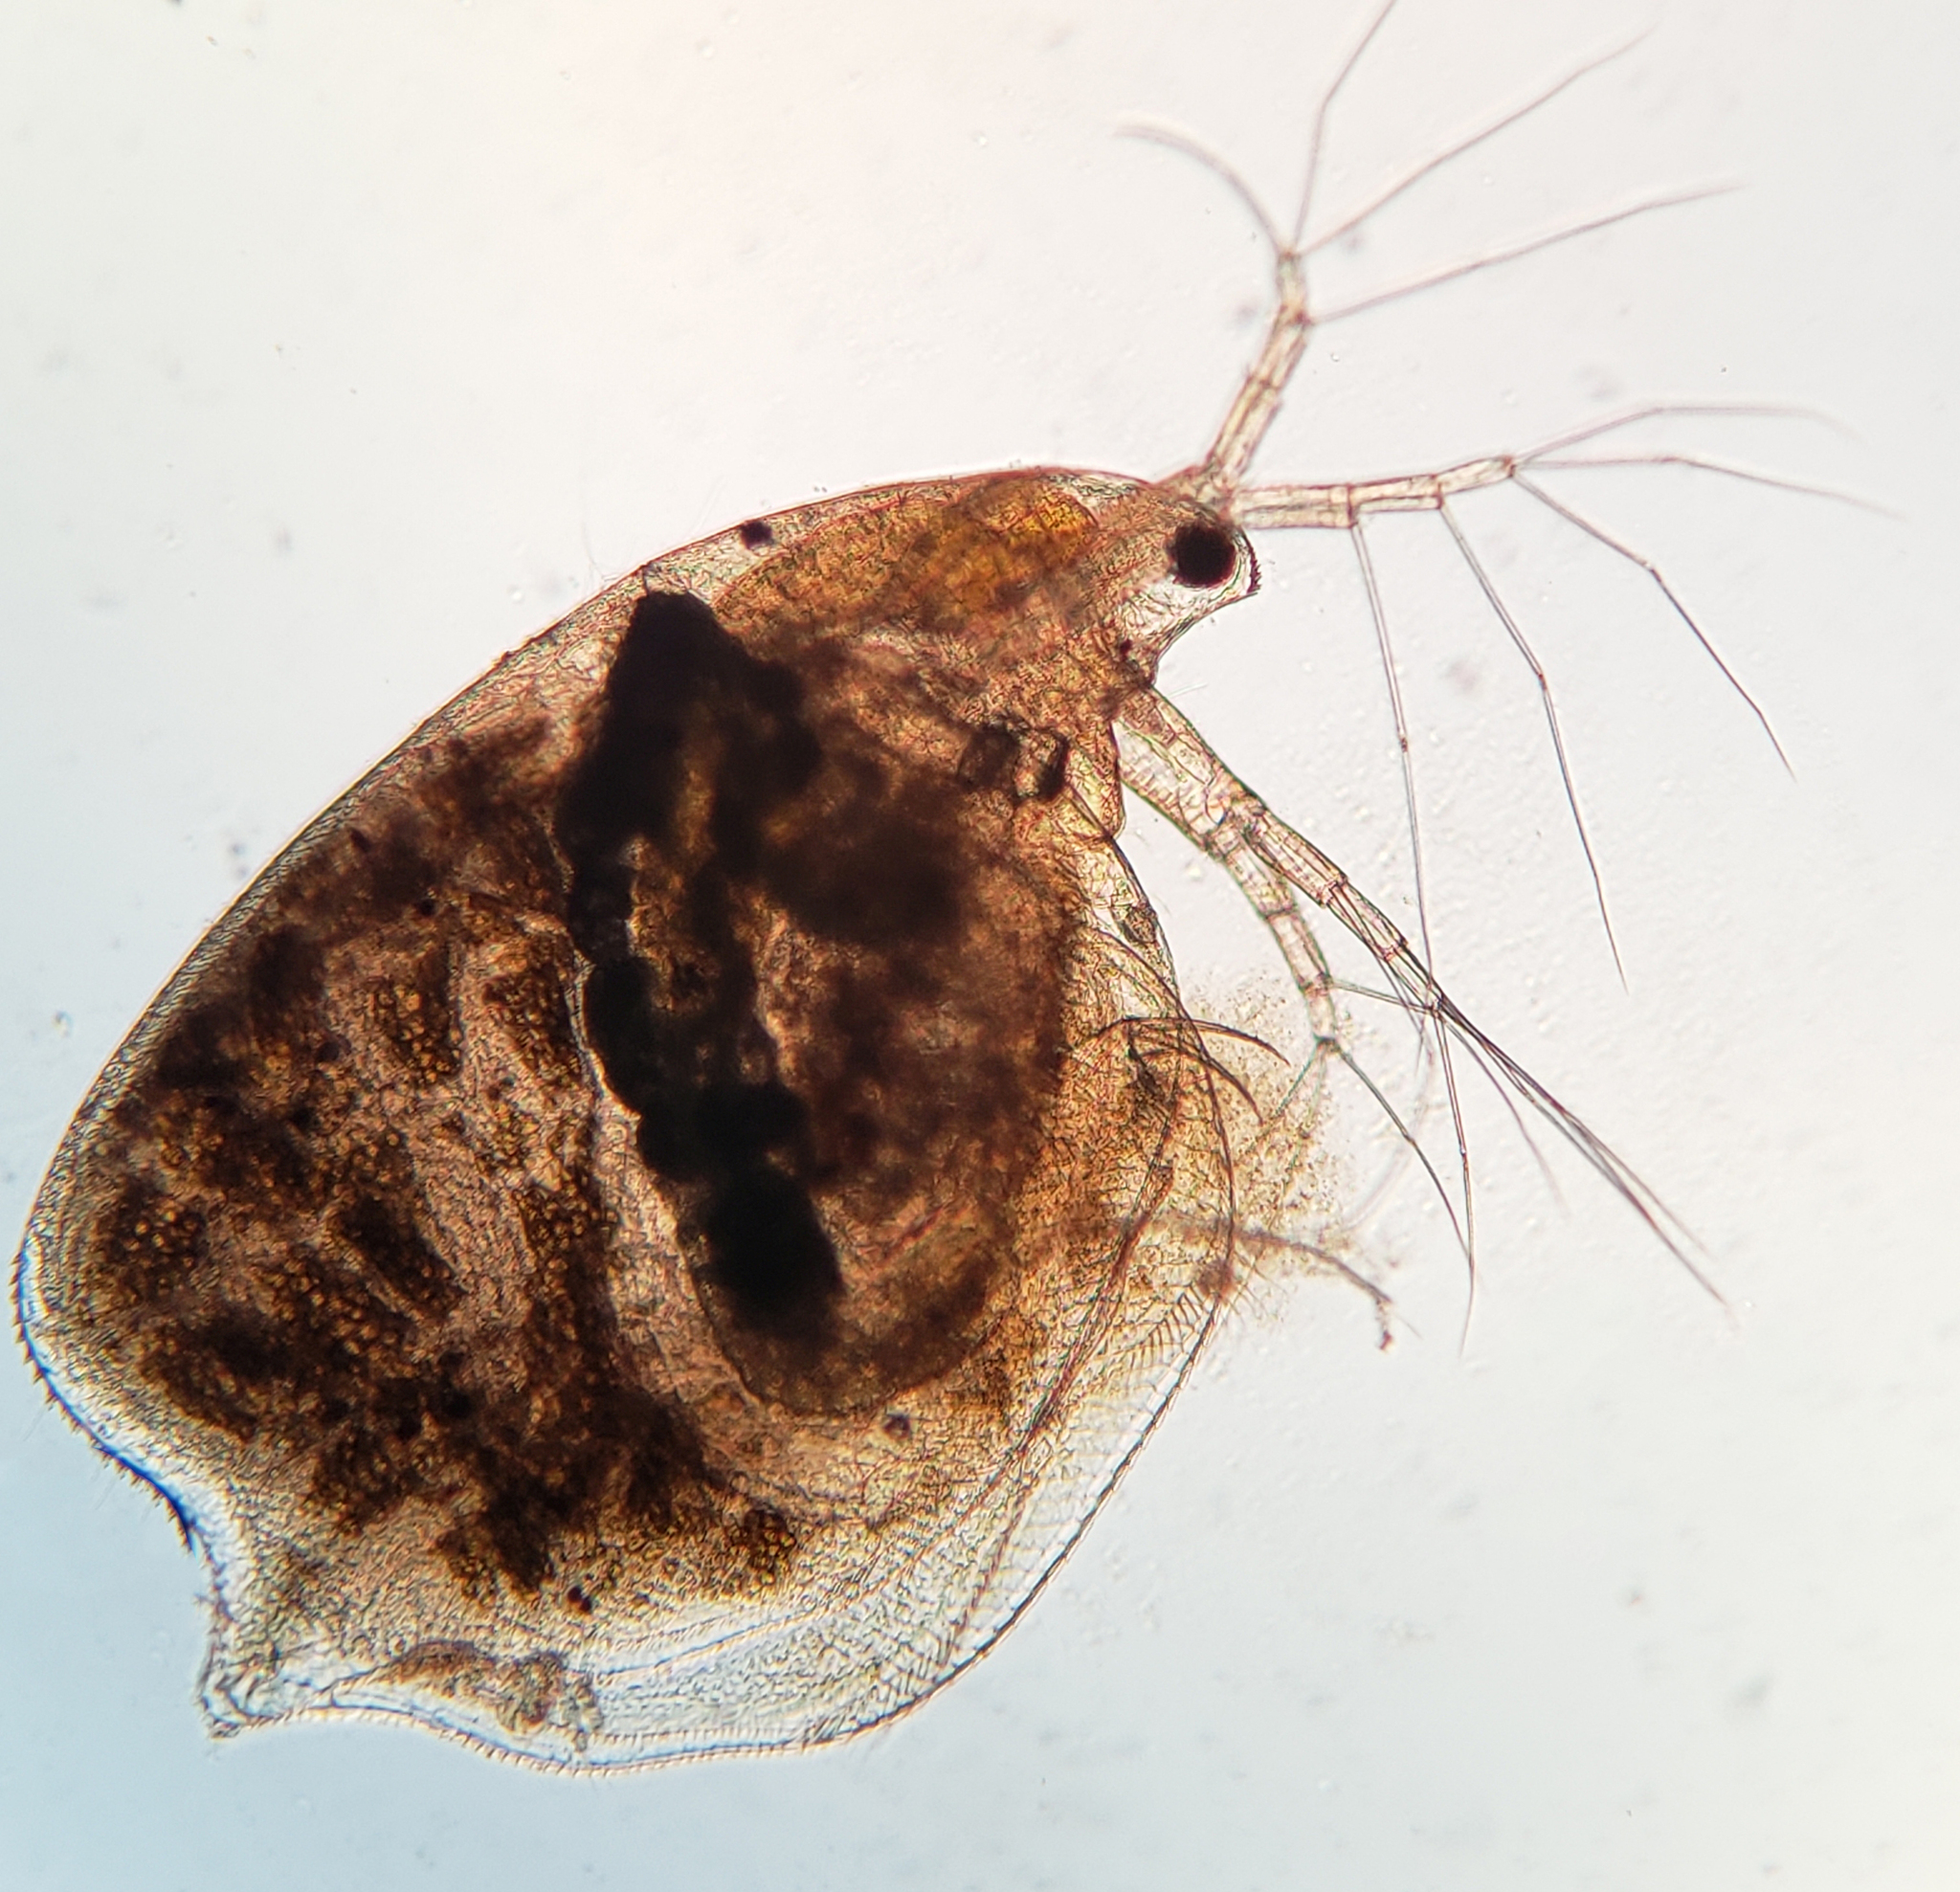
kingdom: Animalia
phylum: Arthropoda
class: Branchiopoda
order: Diplostraca
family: Daphniidae
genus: Simocephalus
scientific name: Simocephalus serrulatus
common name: Water flea
